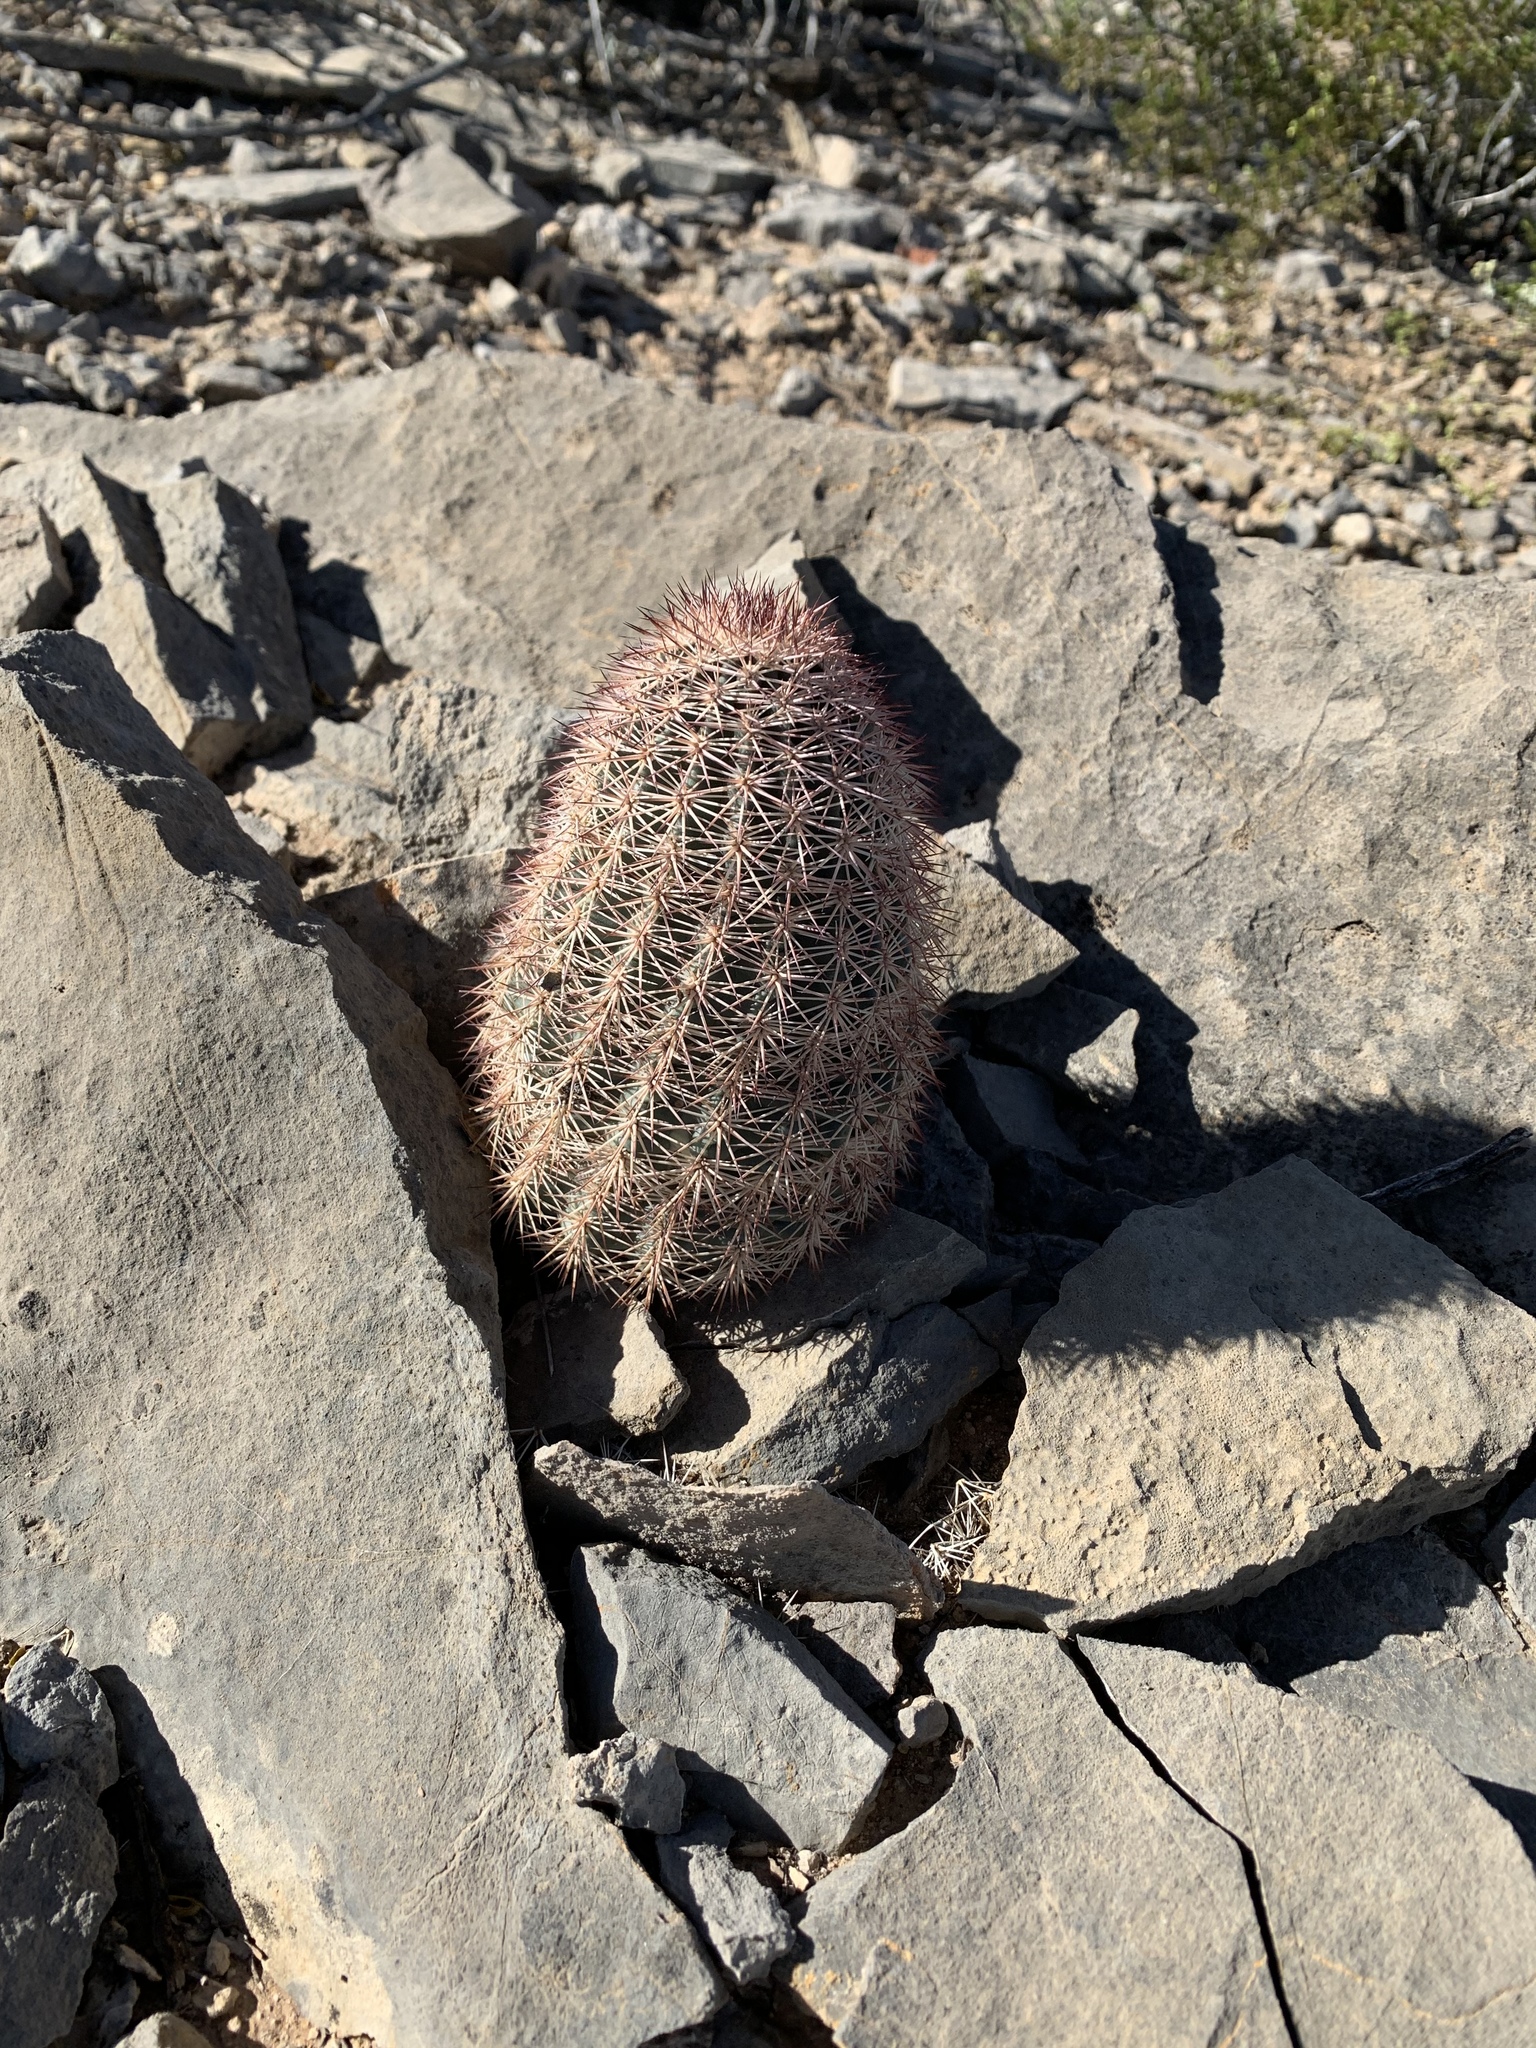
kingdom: Plantae
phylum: Tracheophyta
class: Magnoliopsida
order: Caryophyllales
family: Cactaceae
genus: Echinocereus
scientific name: Echinocereus dasyacanthus
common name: Spiny hedgehog cactus
